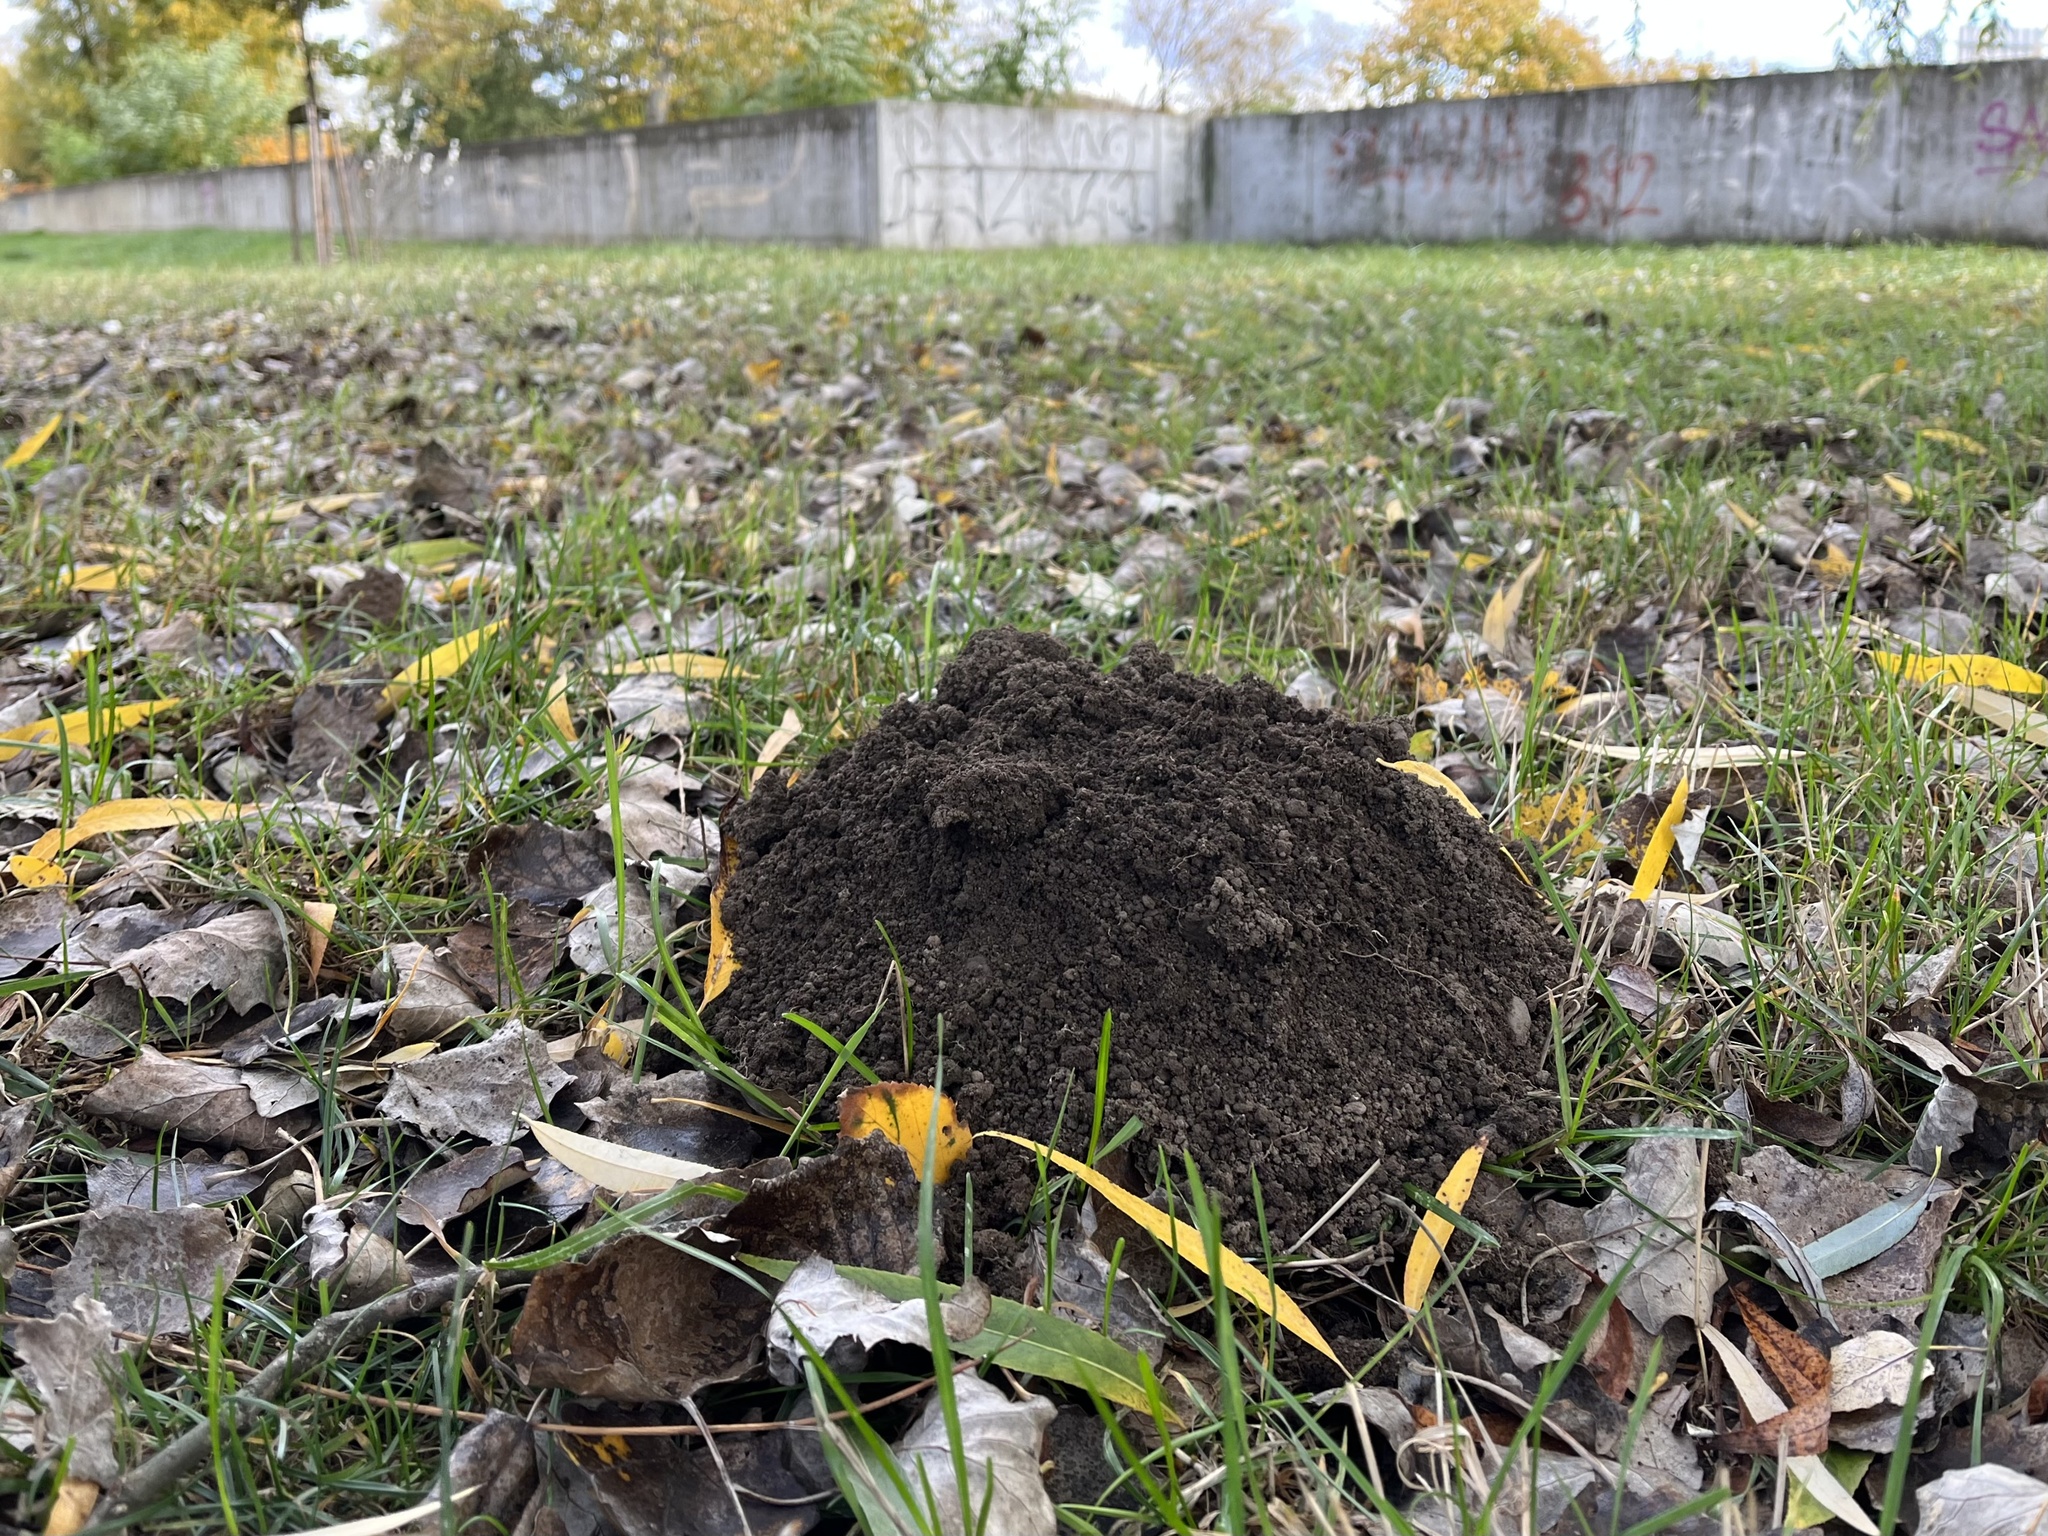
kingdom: Animalia
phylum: Chordata
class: Mammalia
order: Soricomorpha
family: Talpidae
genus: Talpa
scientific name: Talpa europaea
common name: European mole
